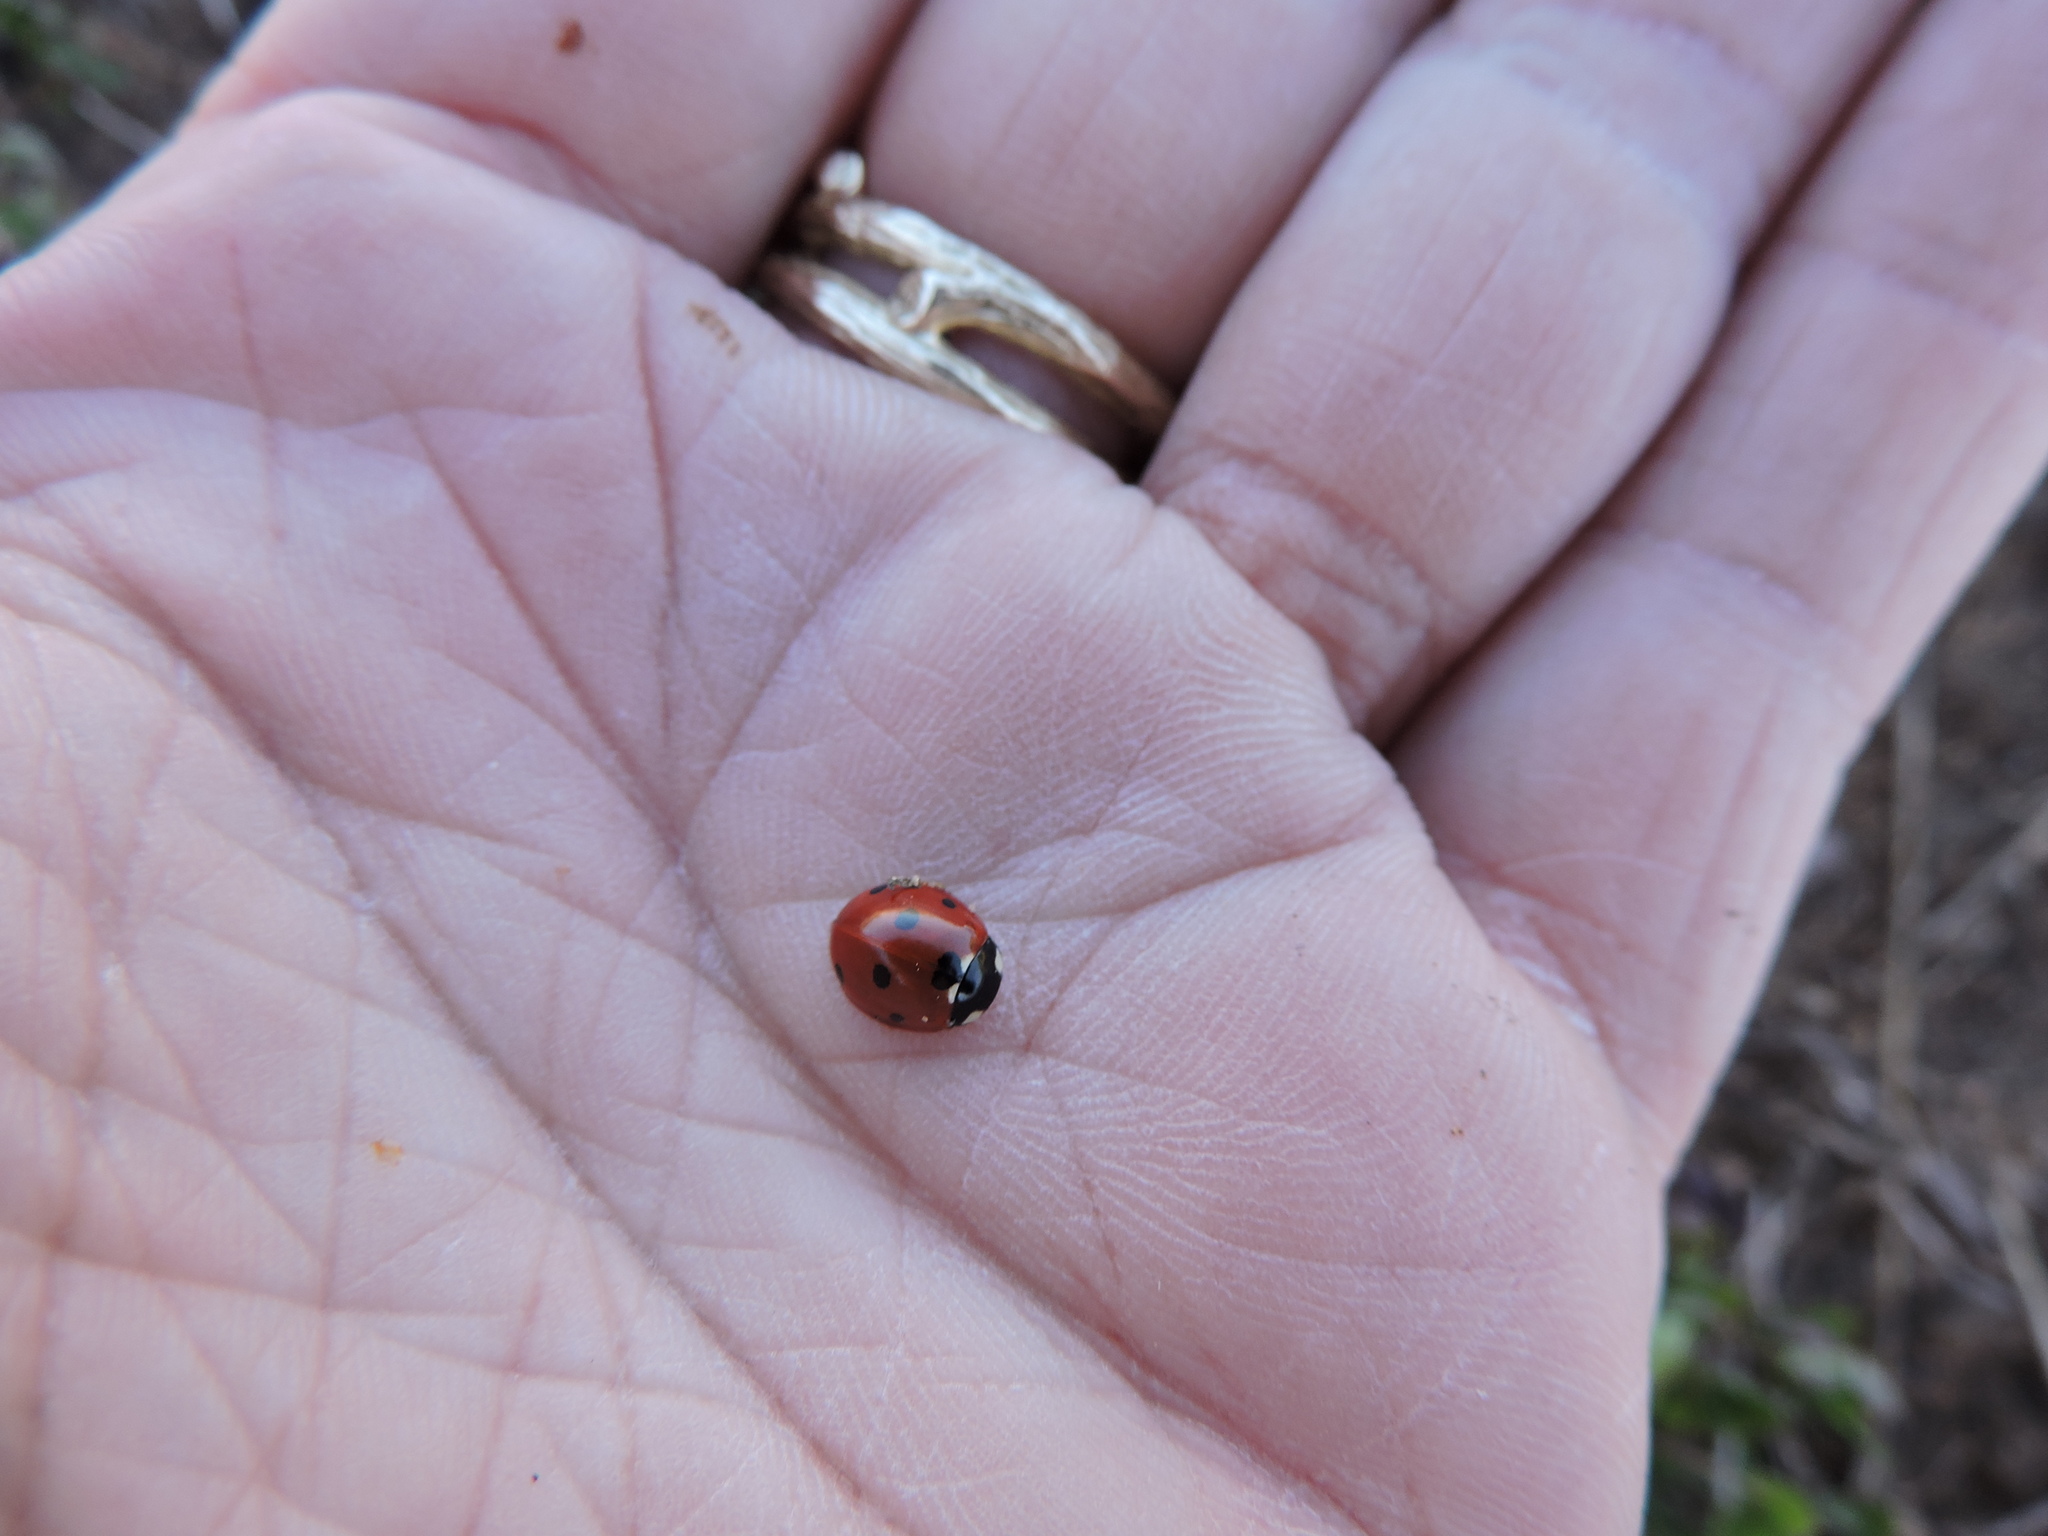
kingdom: Animalia
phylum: Arthropoda
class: Insecta
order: Coleoptera
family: Coccinellidae
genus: Coccinella
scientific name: Coccinella septempunctata
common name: Sevenspotted lady beetle
